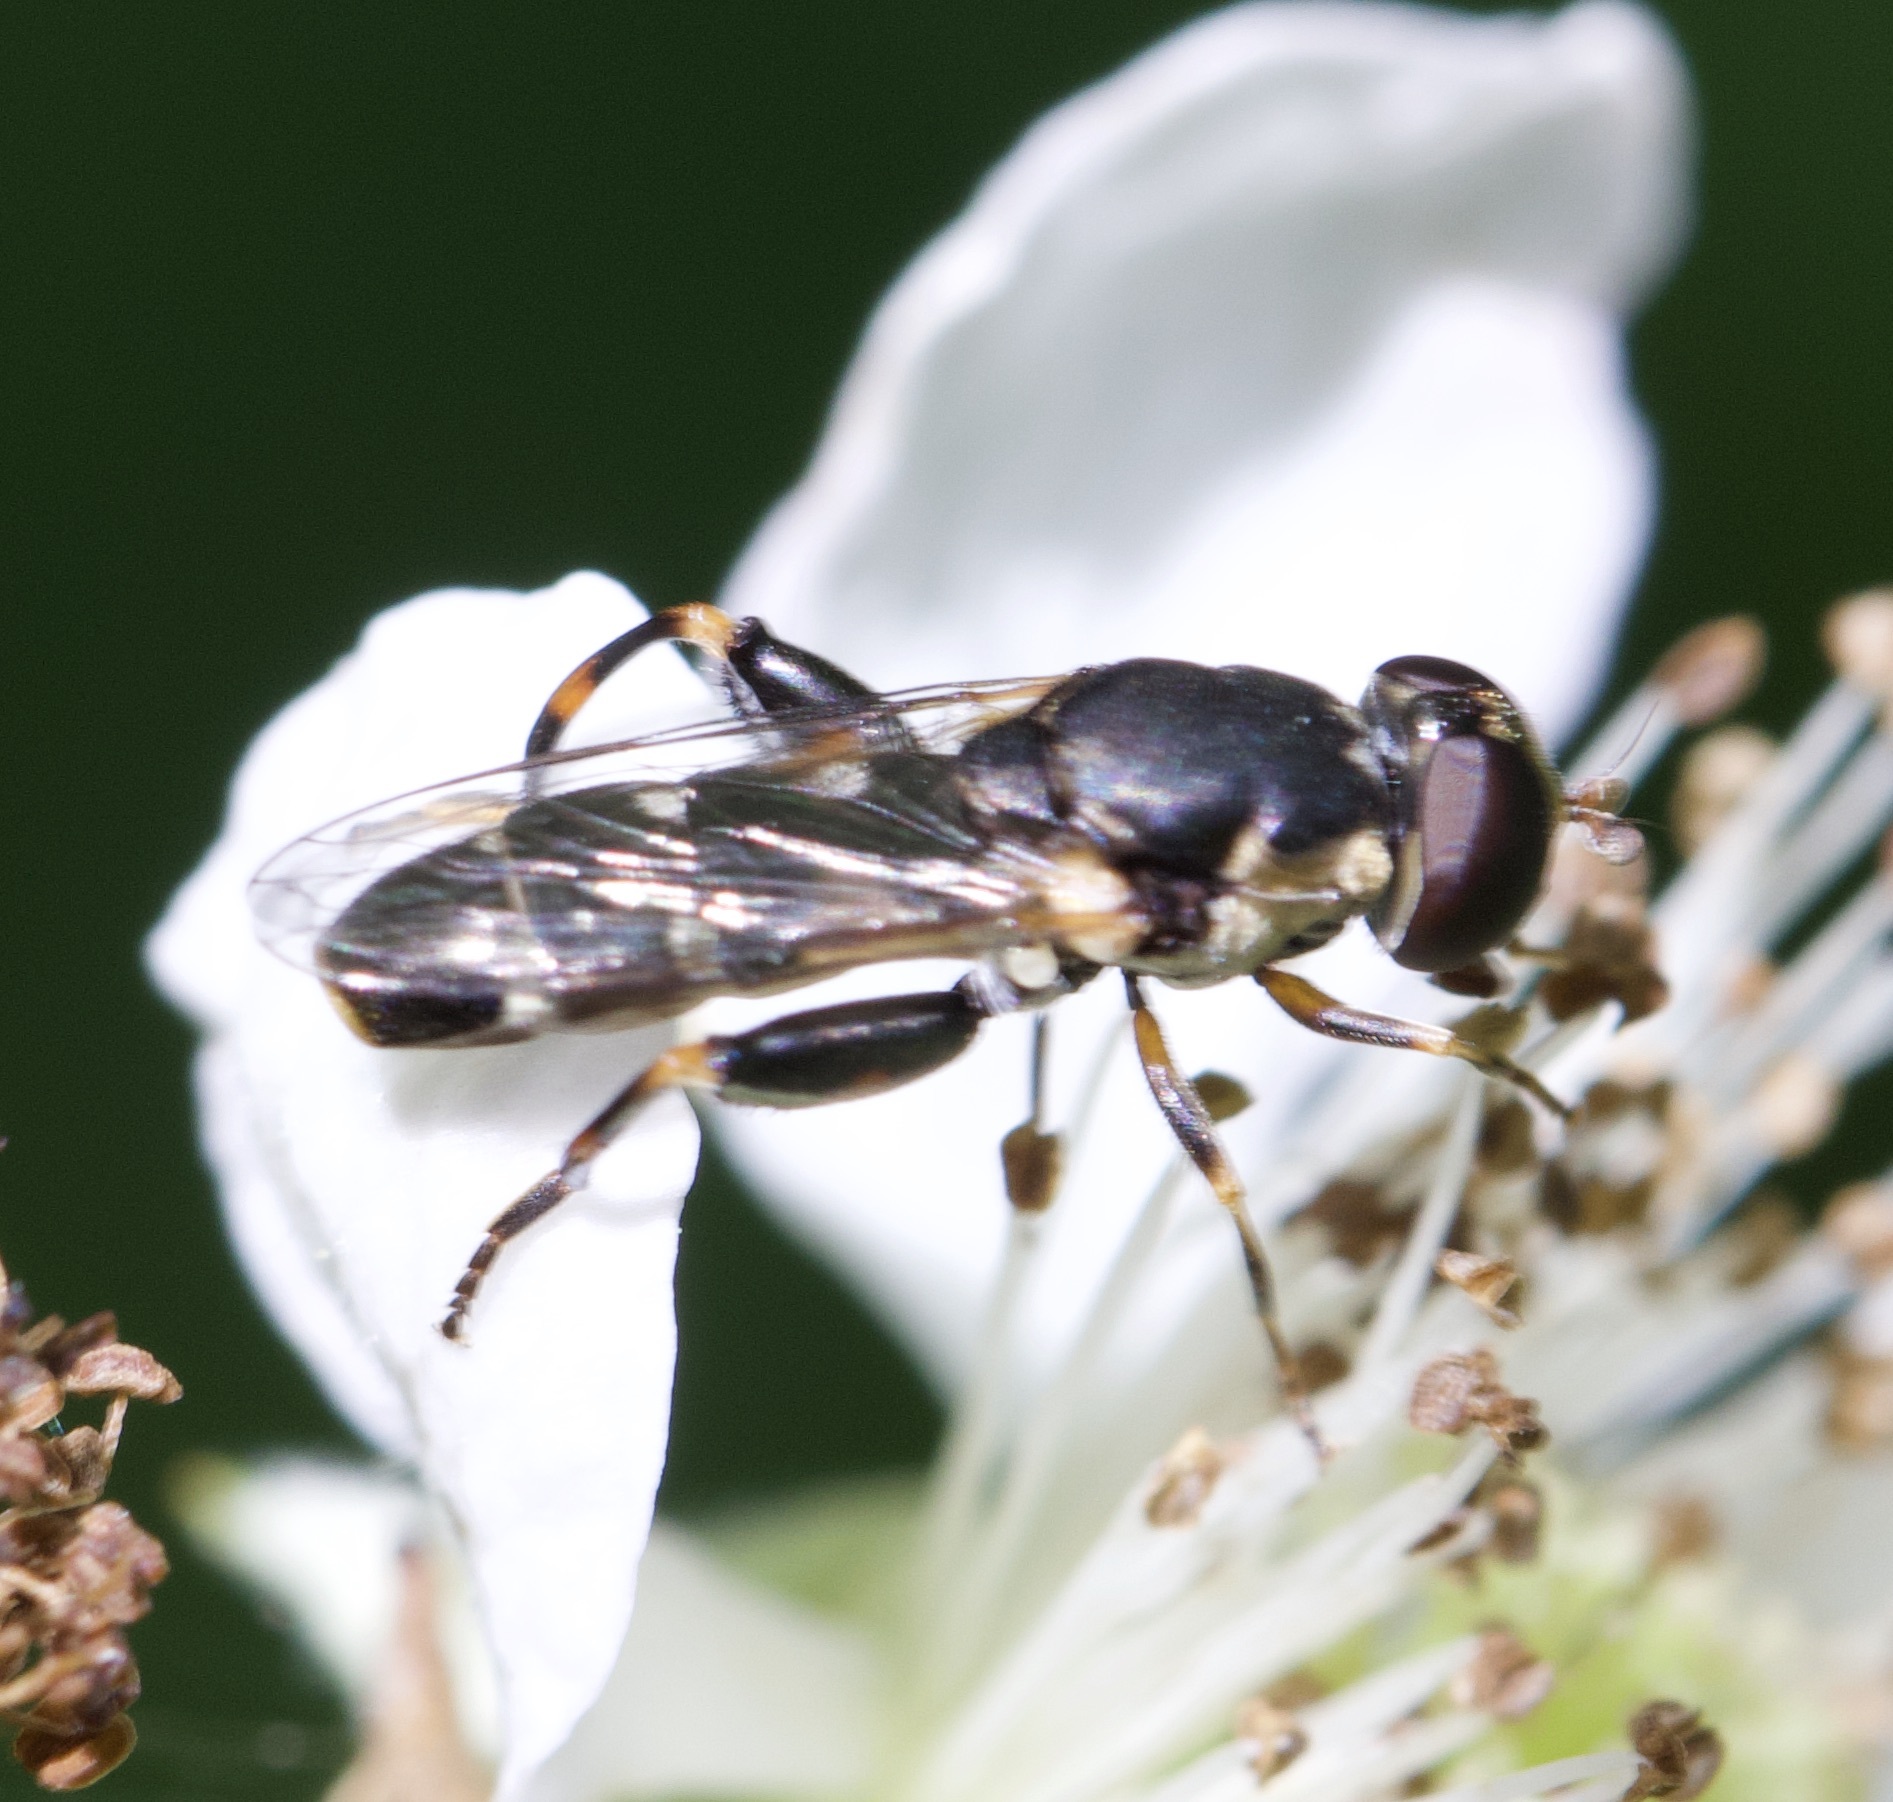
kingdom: Animalia
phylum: Arthropoda
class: Insecta
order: Diptera
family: Syrphidae
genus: Syritta
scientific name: Syritta pipiens
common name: Hover fly
